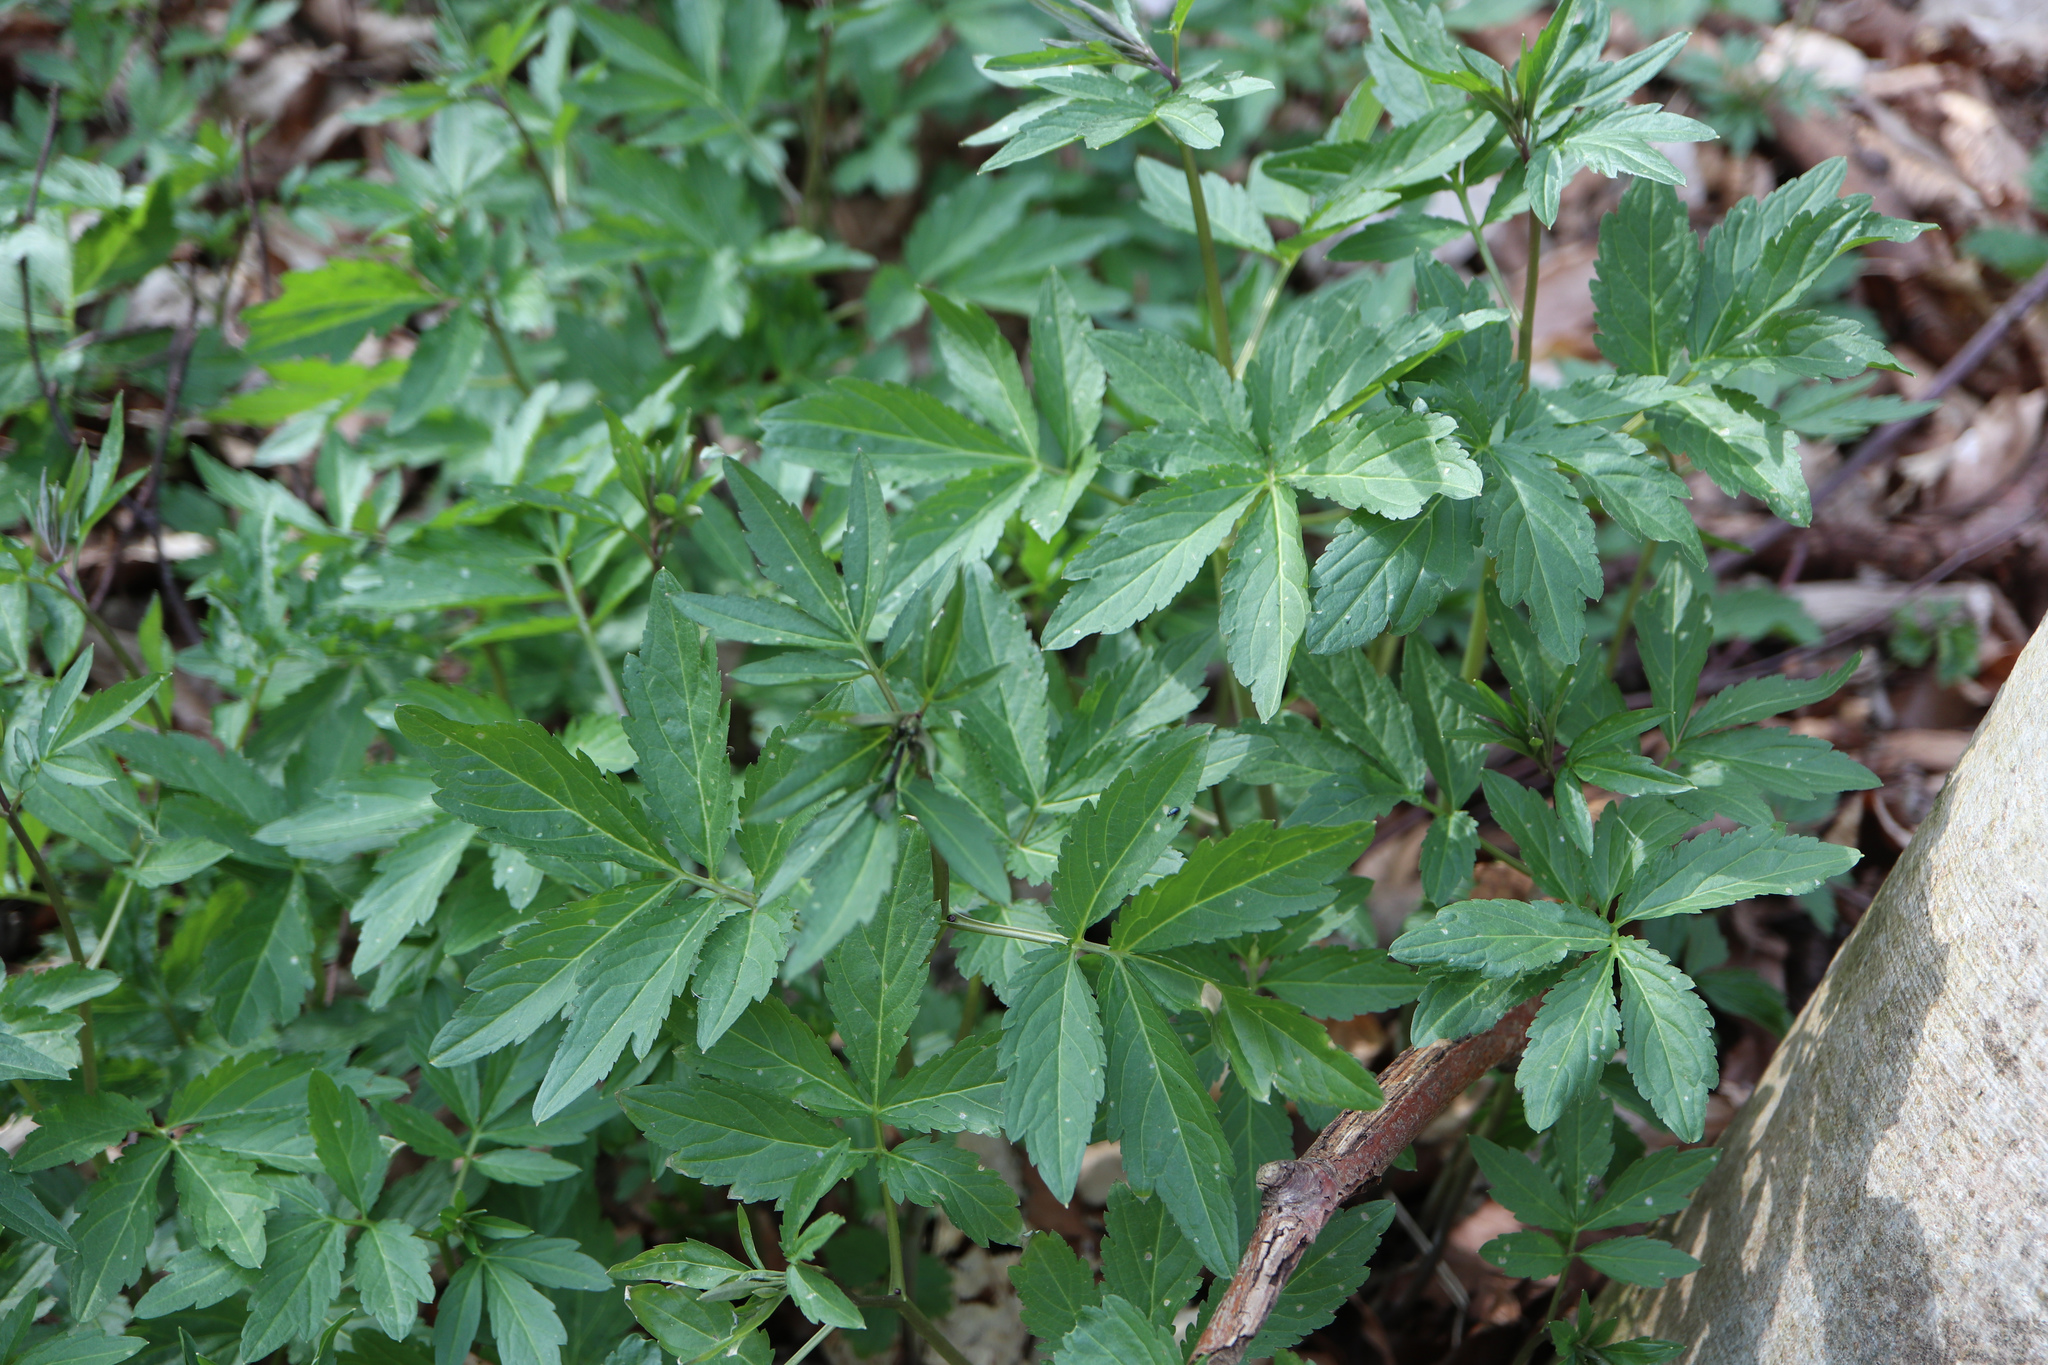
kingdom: Plantae
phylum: Tracheophyta
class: Magnoliopsida
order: Brassicales
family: Brassicaceae
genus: Cardamine
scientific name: Cardamine bulbifera
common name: Coralroot bittercress
